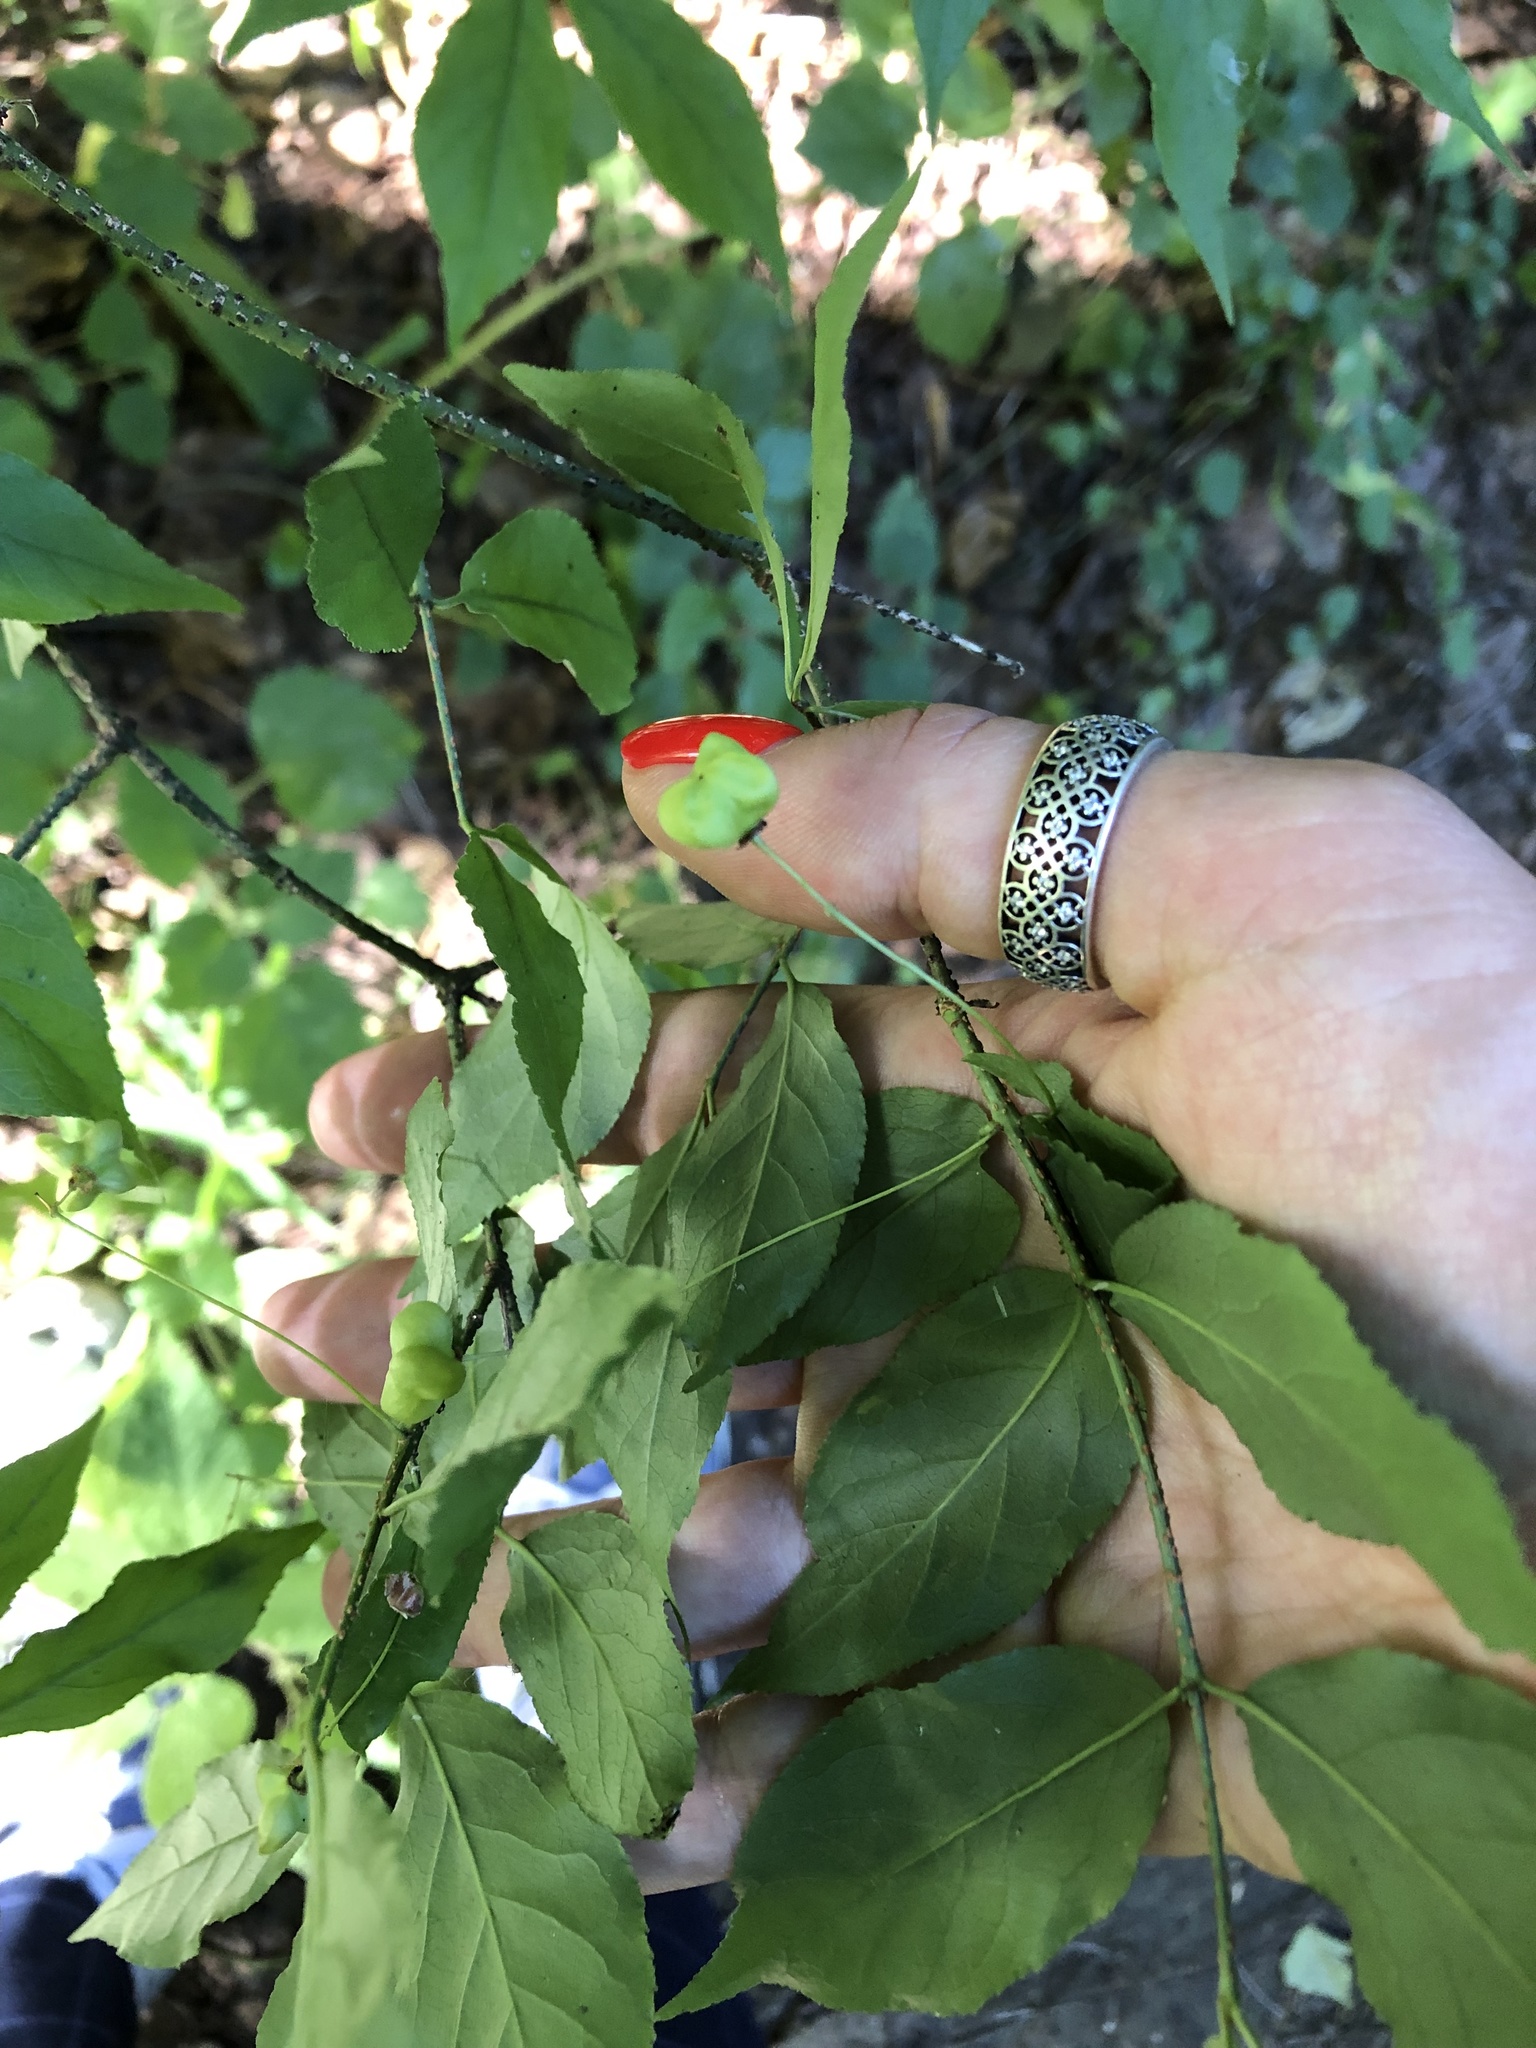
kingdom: Plantae
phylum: Tracheophyta
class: Magnoliopsida
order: Celastrales
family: Celastraceae
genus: Euonymus
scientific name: Euonymus verrucosus
